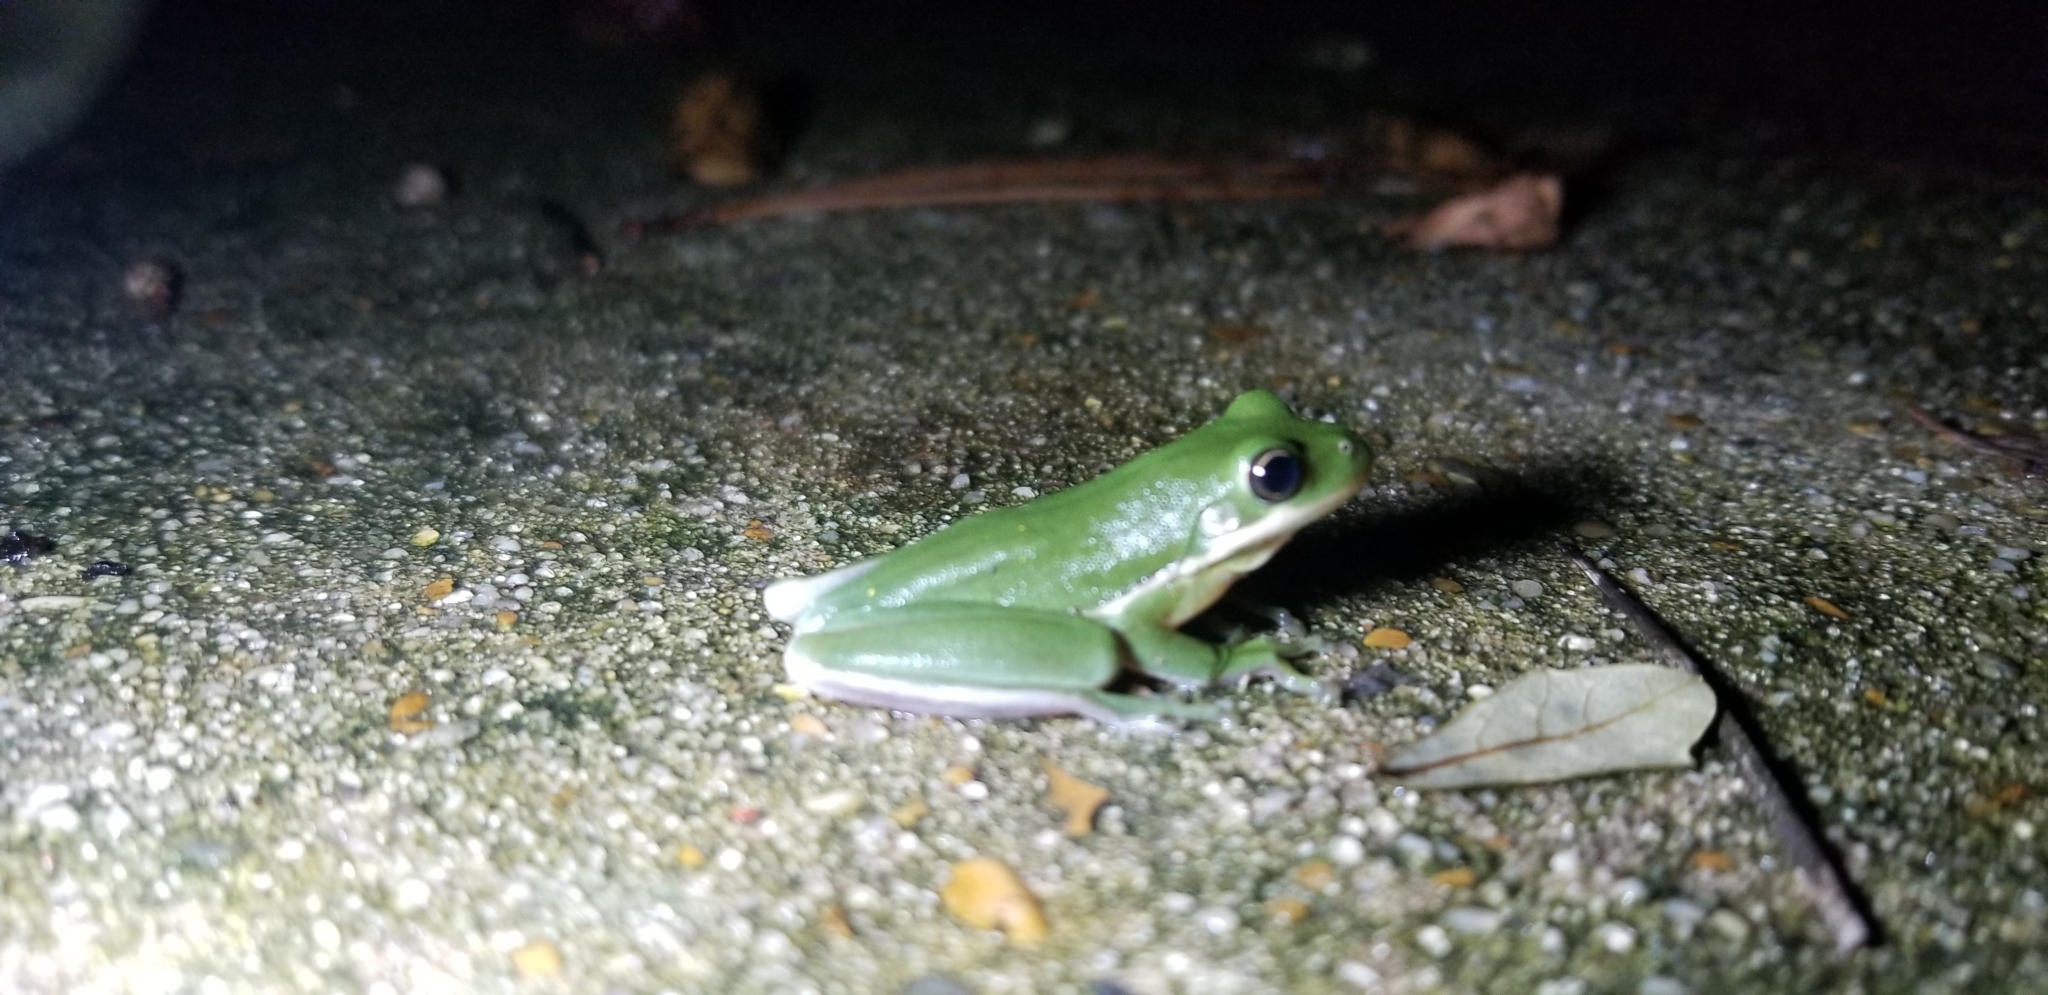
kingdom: Animalia
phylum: Chordata
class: Amphibia
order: Anura
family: Hylidae
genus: Dryophytes
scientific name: Dryophytes cinereus
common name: Green treefrog
